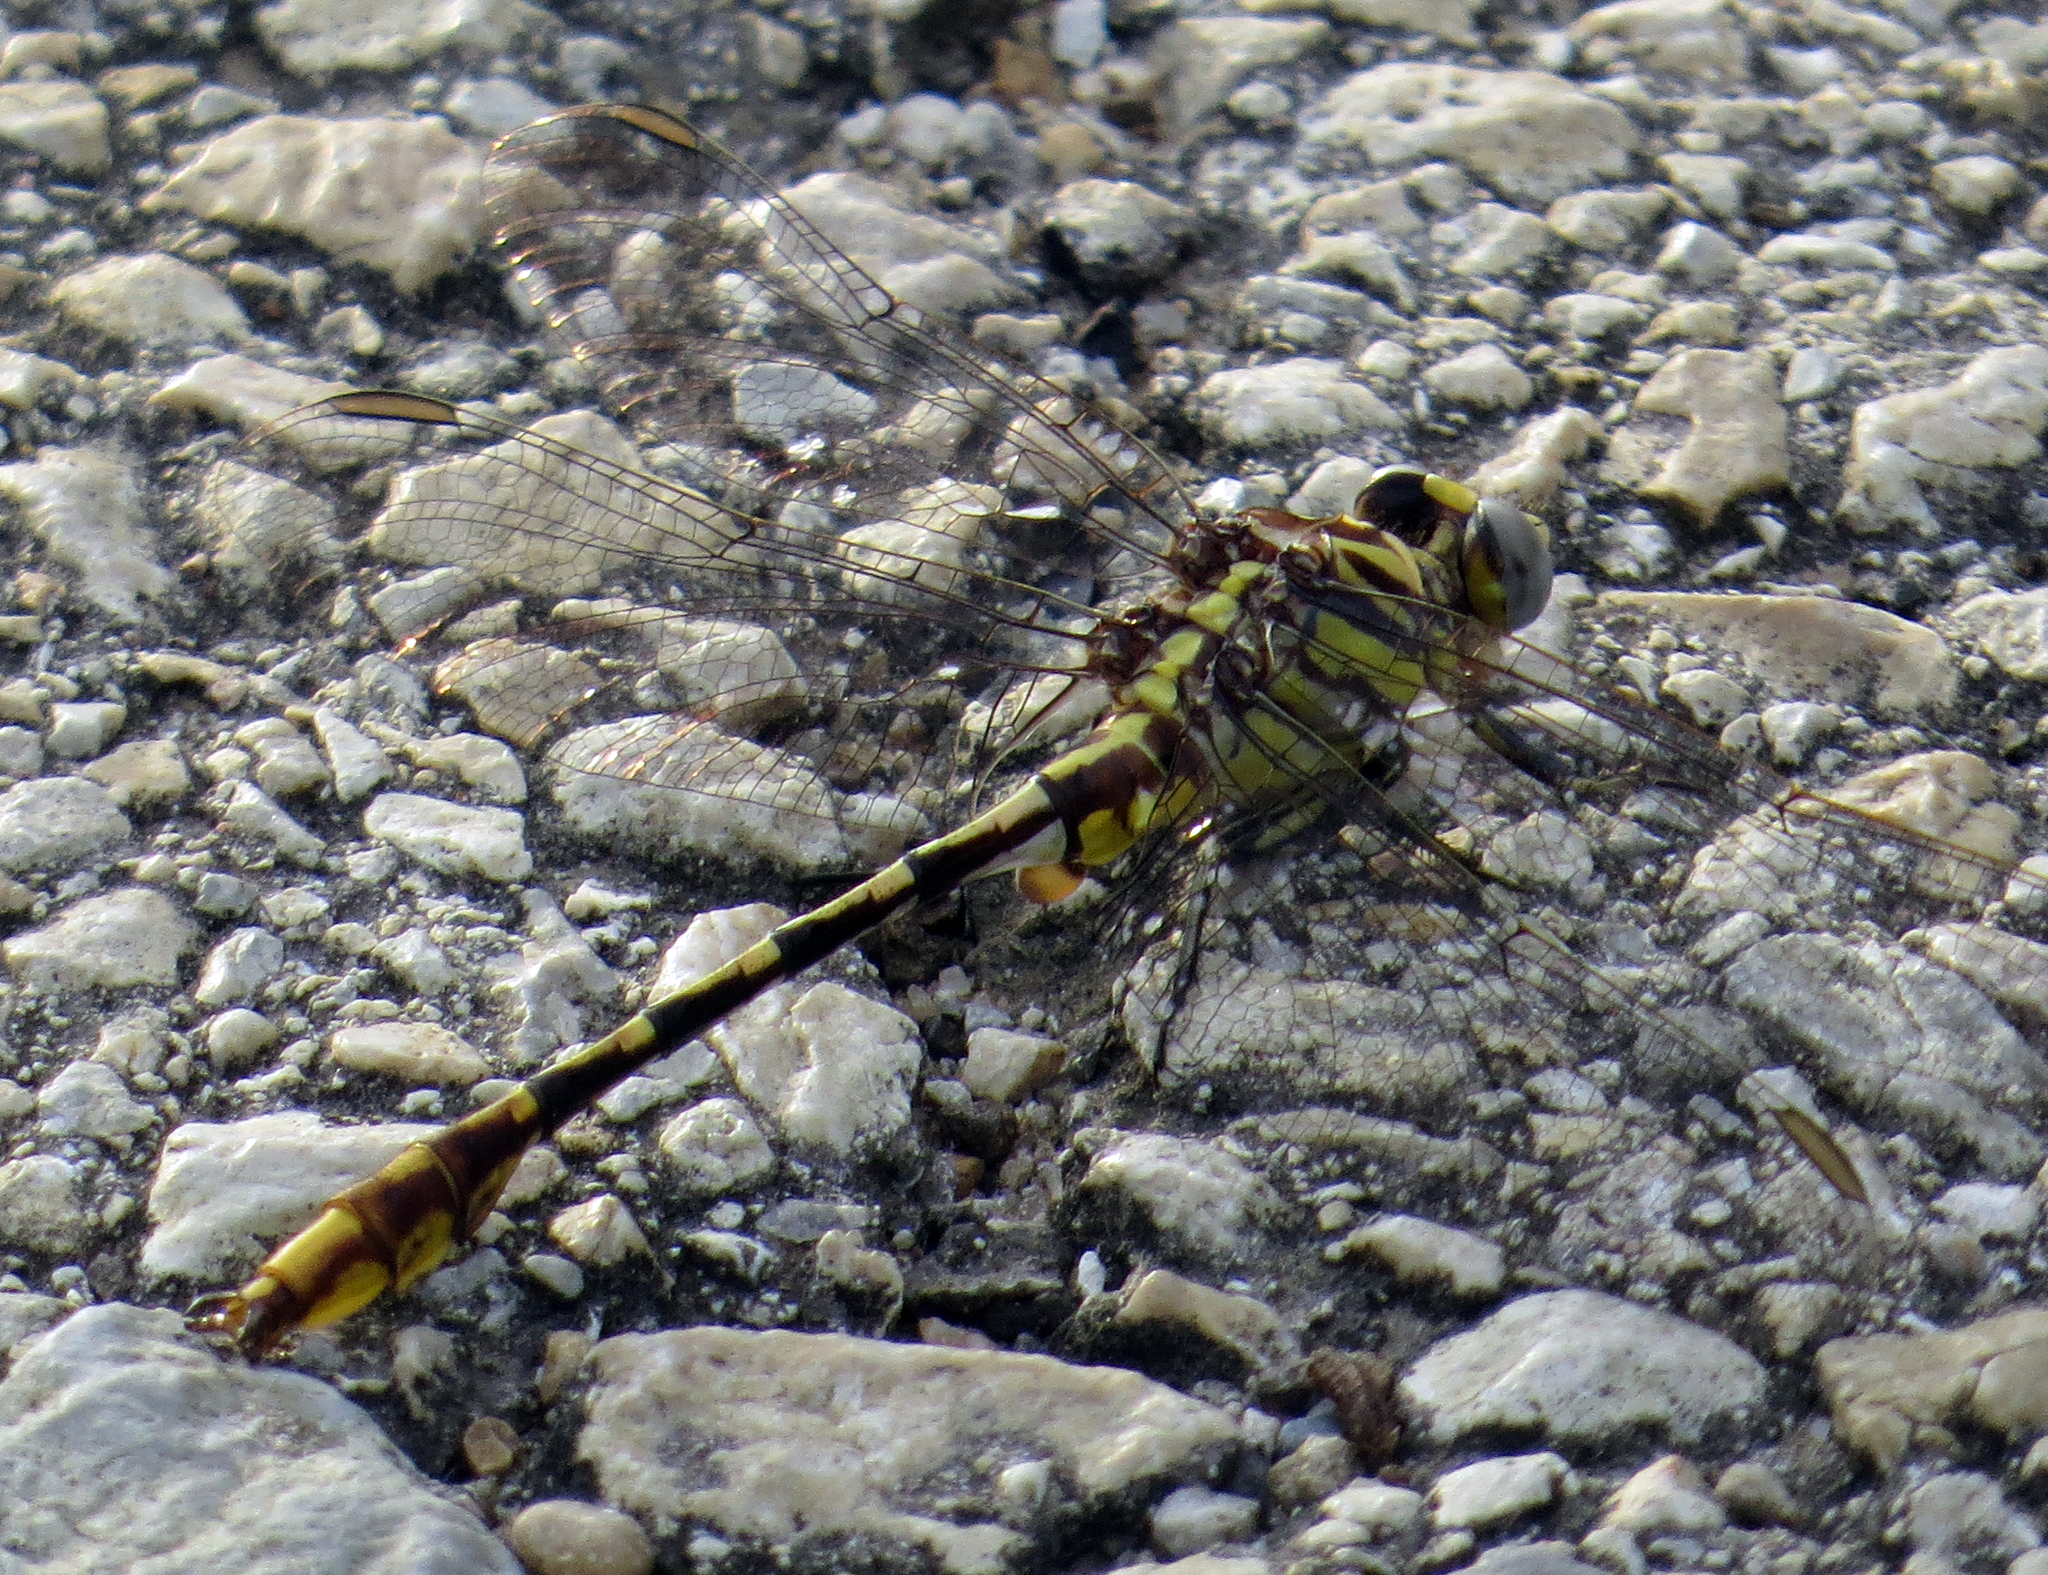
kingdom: Animalia
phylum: Arthropoda
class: Insecta
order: Odonata
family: Gomphidae
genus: Phanogomphus
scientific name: Phanogomphus militaris
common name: Sulphur-tipped clubtail
